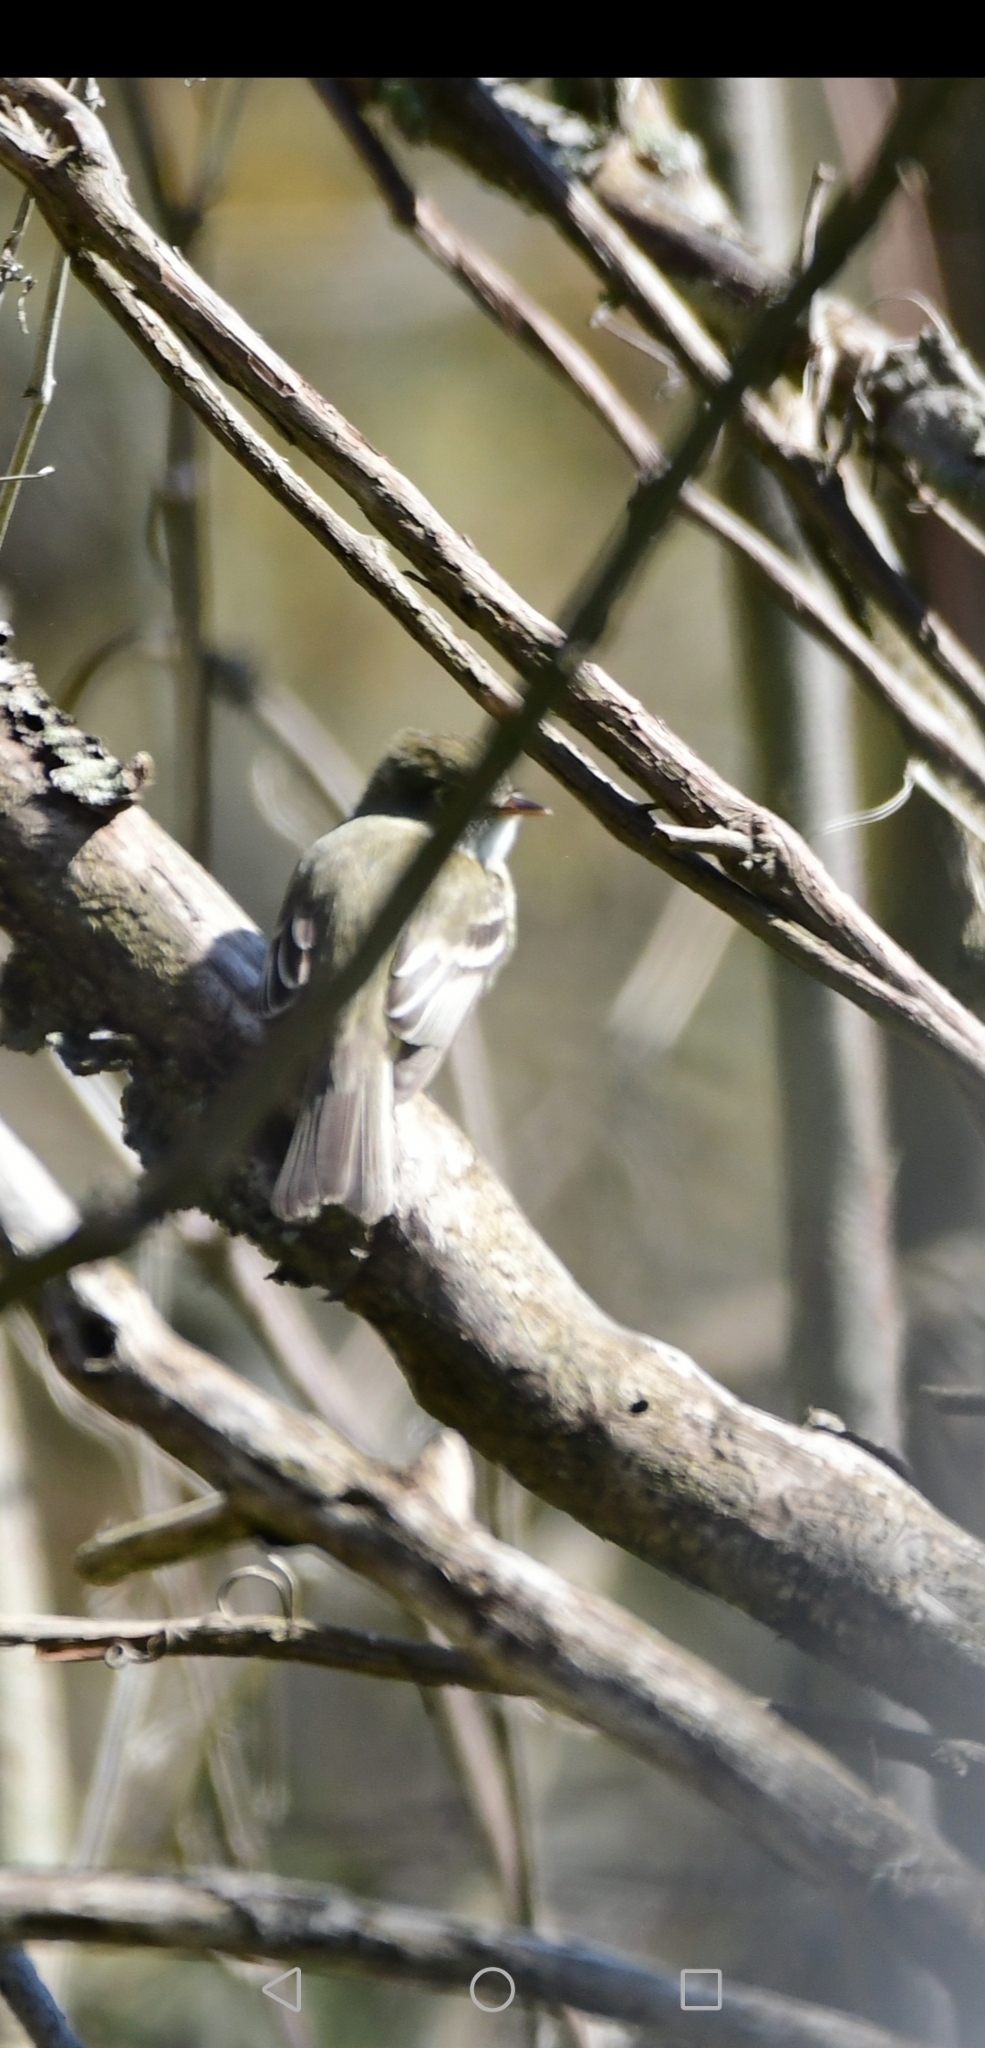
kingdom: Animalia
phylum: Chordata
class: Aves
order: Passeriformes
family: Tyrannidae
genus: Empidonax
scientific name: Empidonax minimus
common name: Least flycatcher
